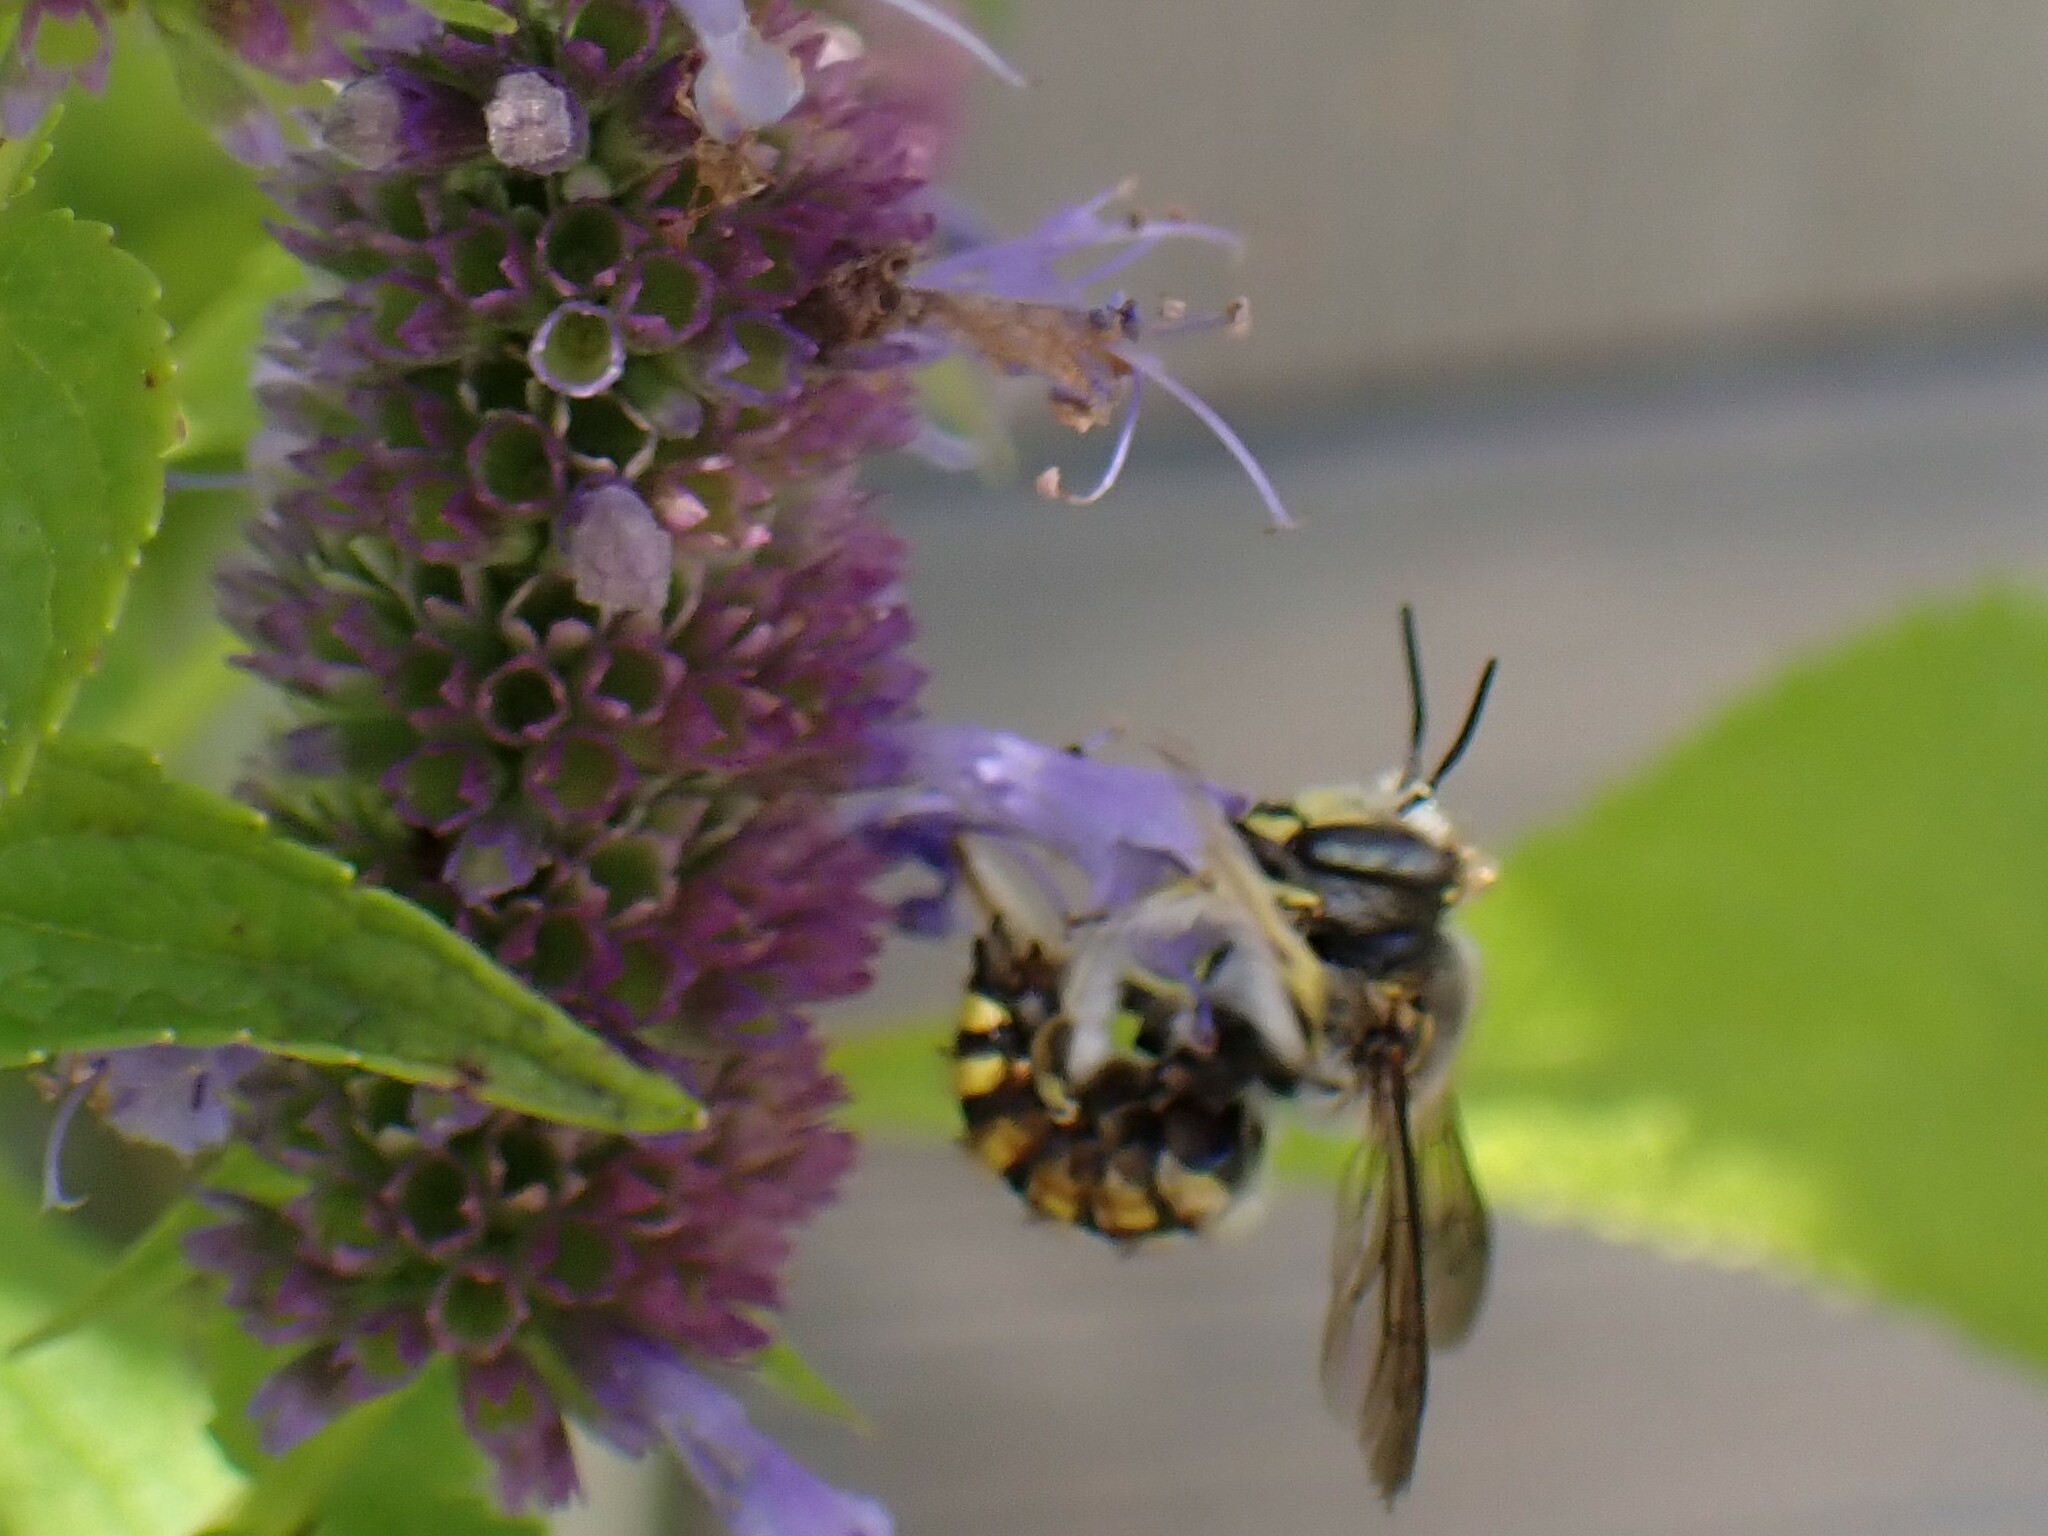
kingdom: Animalia
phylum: Arthropoda
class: Insecta
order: Hymenoptera
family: Megachilidae
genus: Anthidium
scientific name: Anthidium manicatum
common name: Wool carder bee
